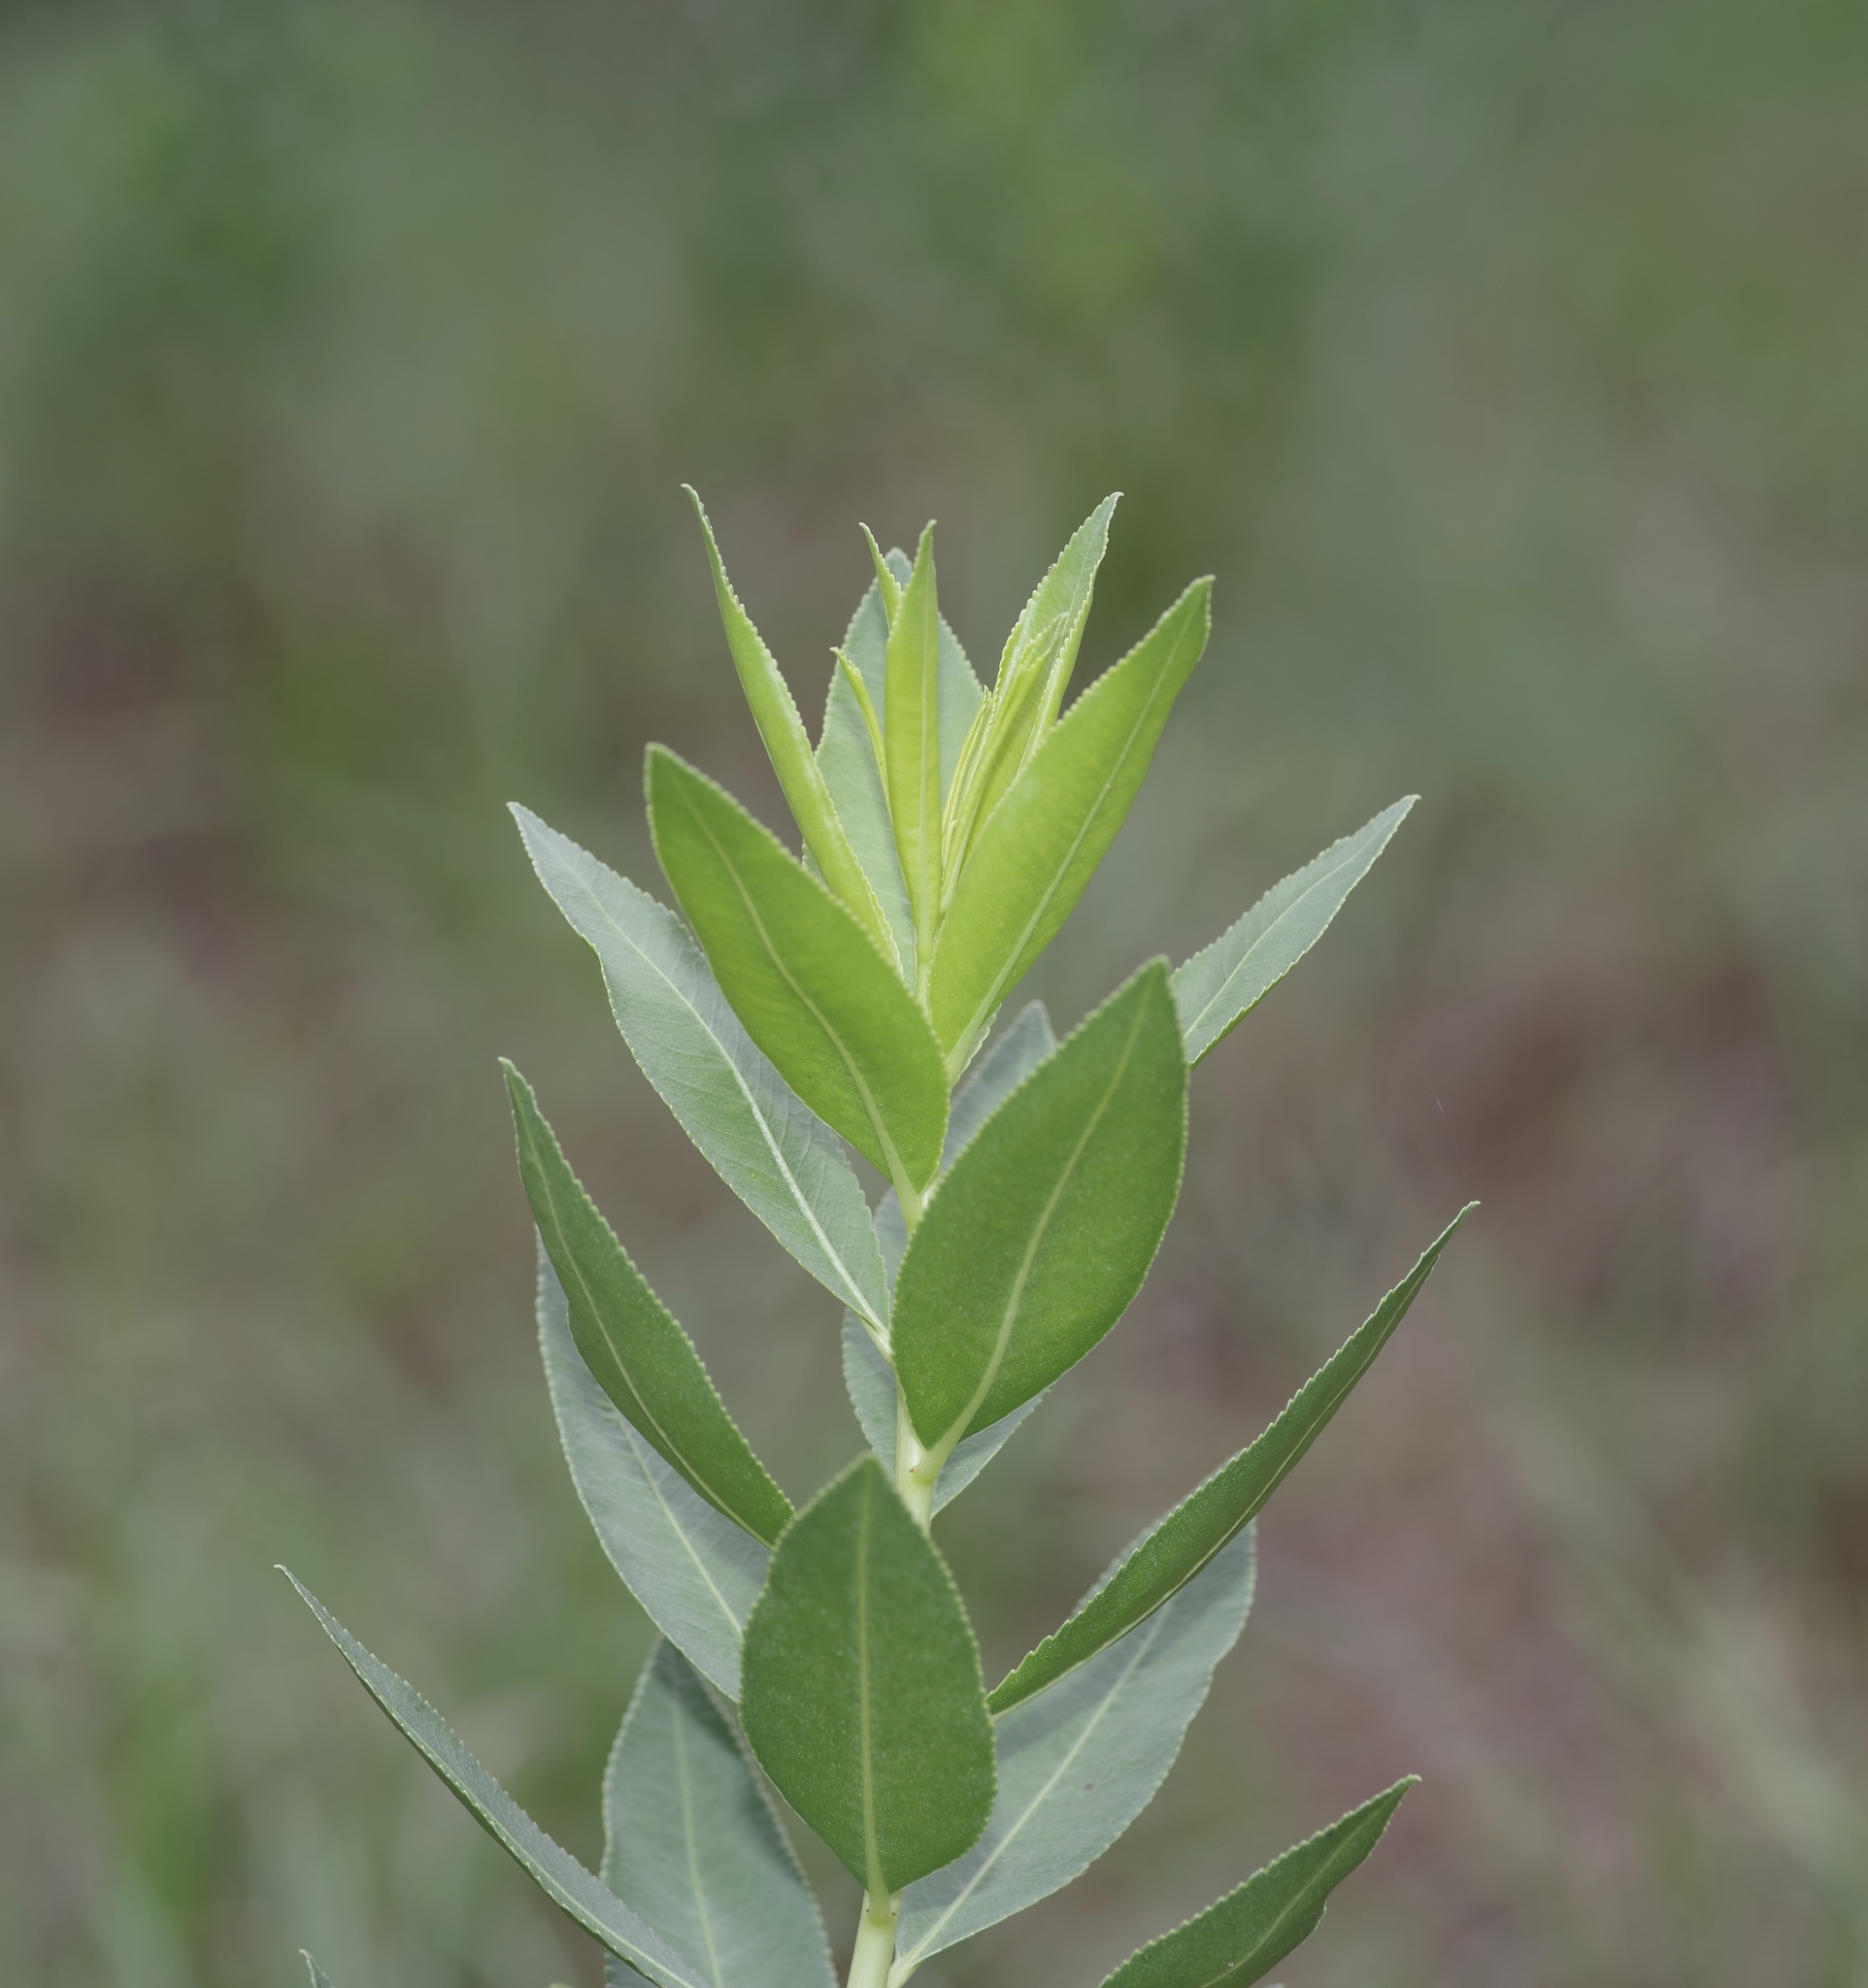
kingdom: Plantae
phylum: Tracheophyta
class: Magnoliopsida
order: Malpighiales
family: Euphorbiaceae
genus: Stillingia
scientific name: Stillingia sylvatica
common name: Queen's-delight
